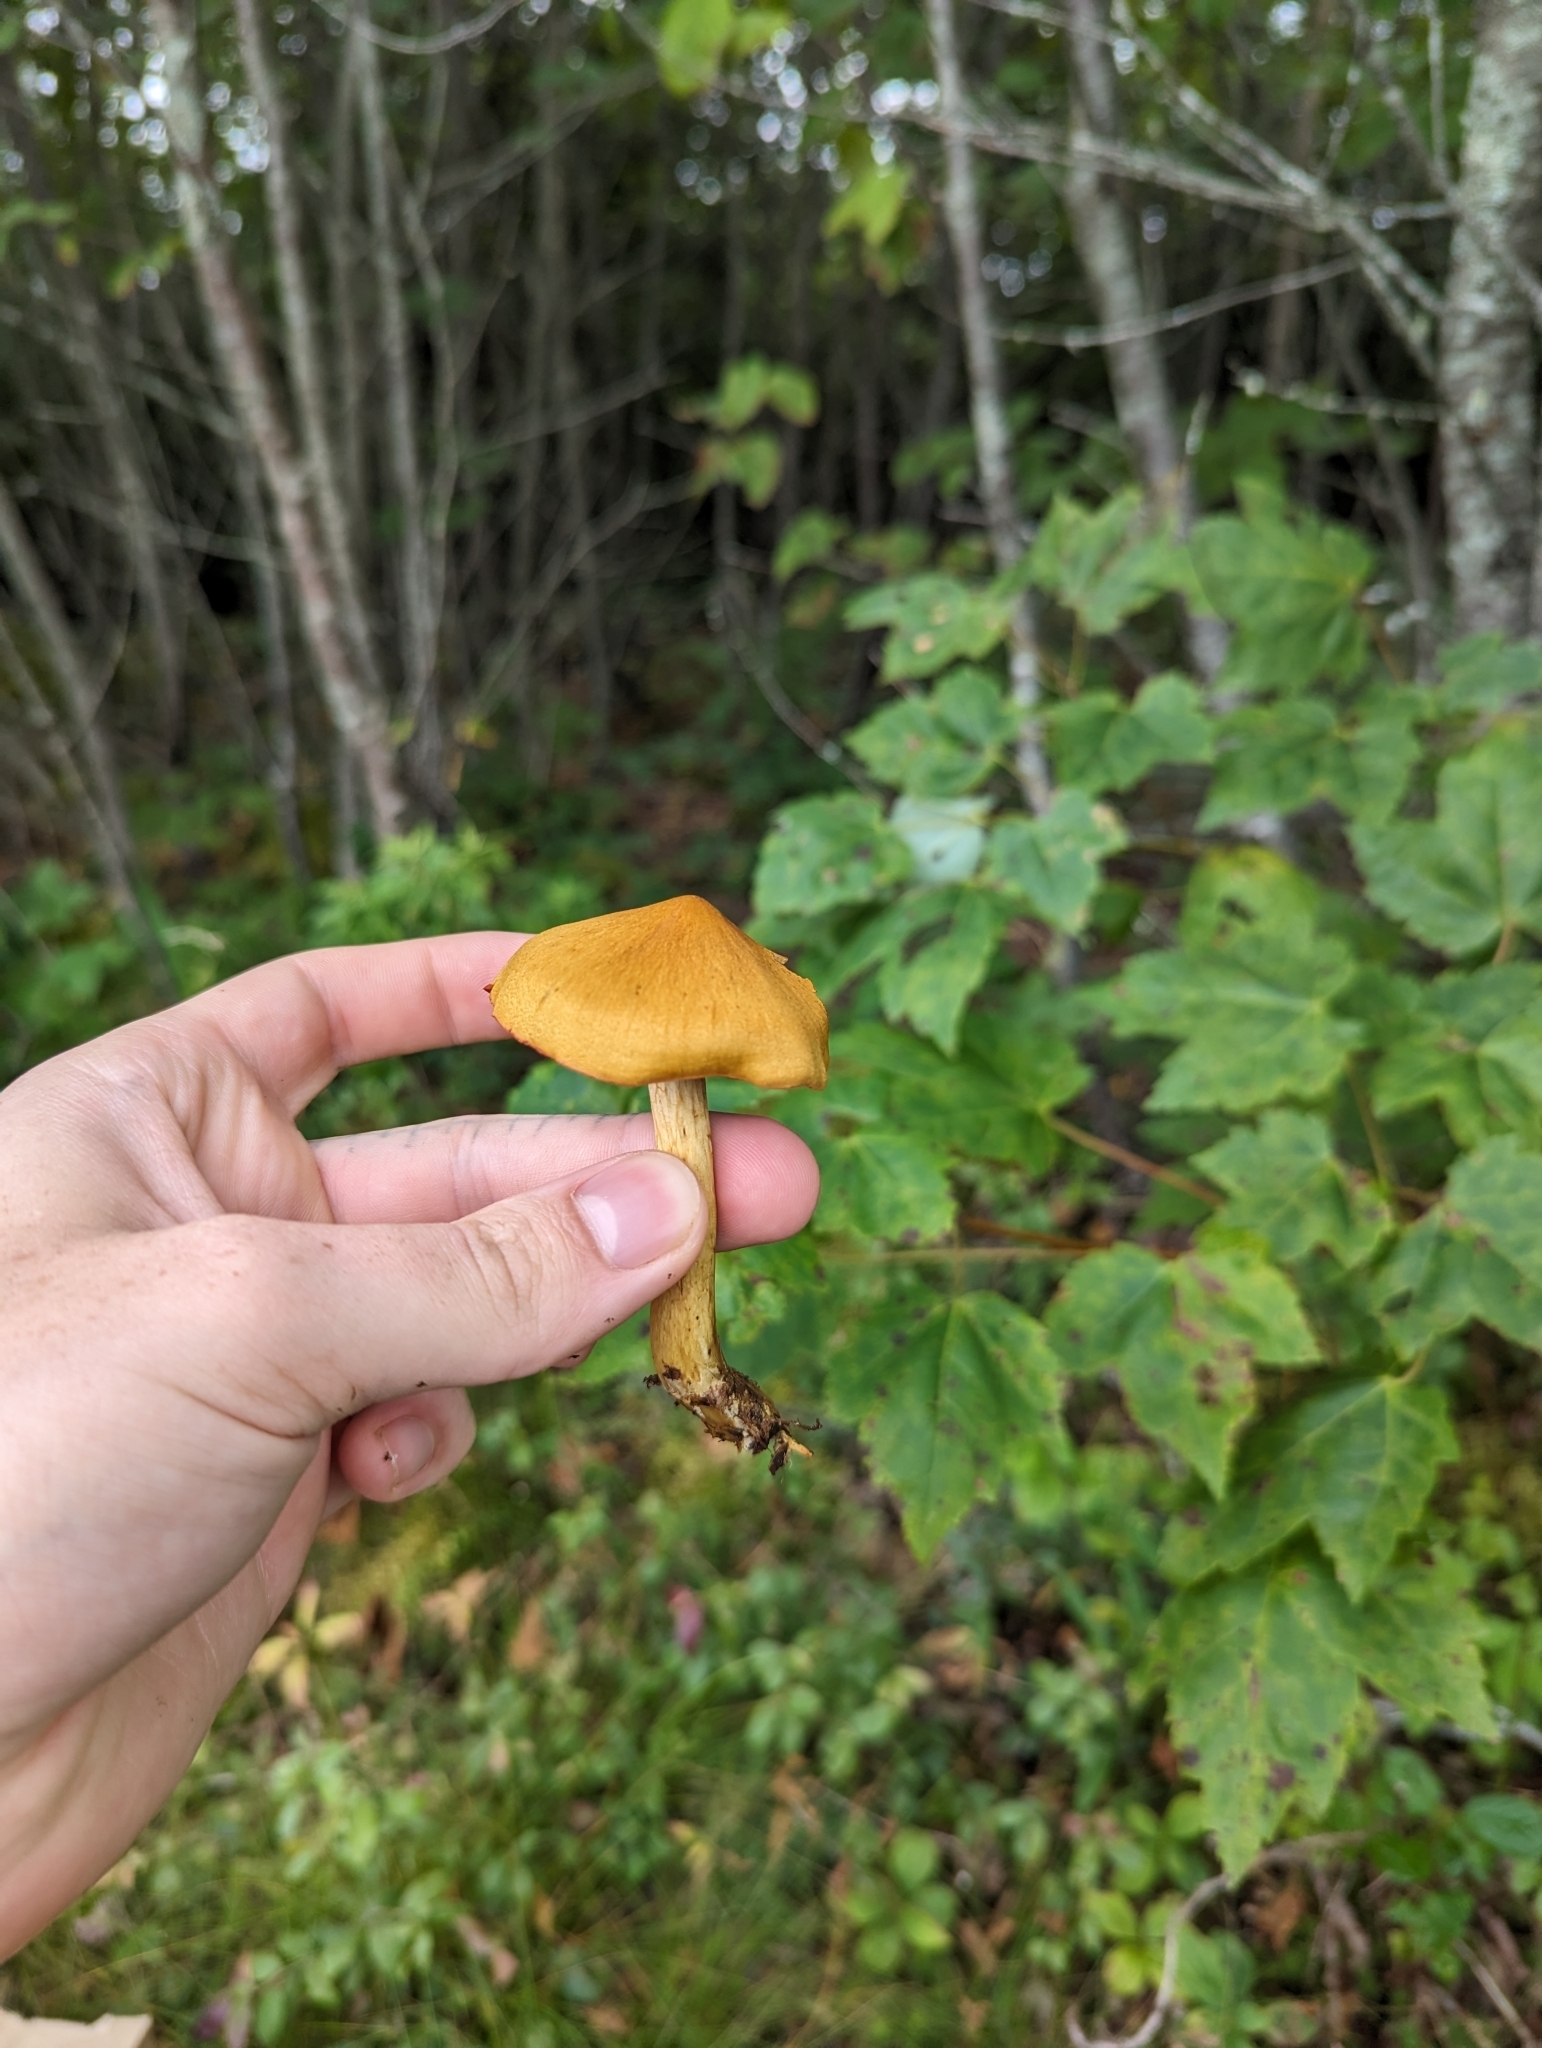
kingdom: Fungi
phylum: Basidiomycota
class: Agaricomycetes
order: Agaricales
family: Cortinariaceae
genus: Cortinarius
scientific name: Cortinarius semisanguineus
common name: Surprise webcap
